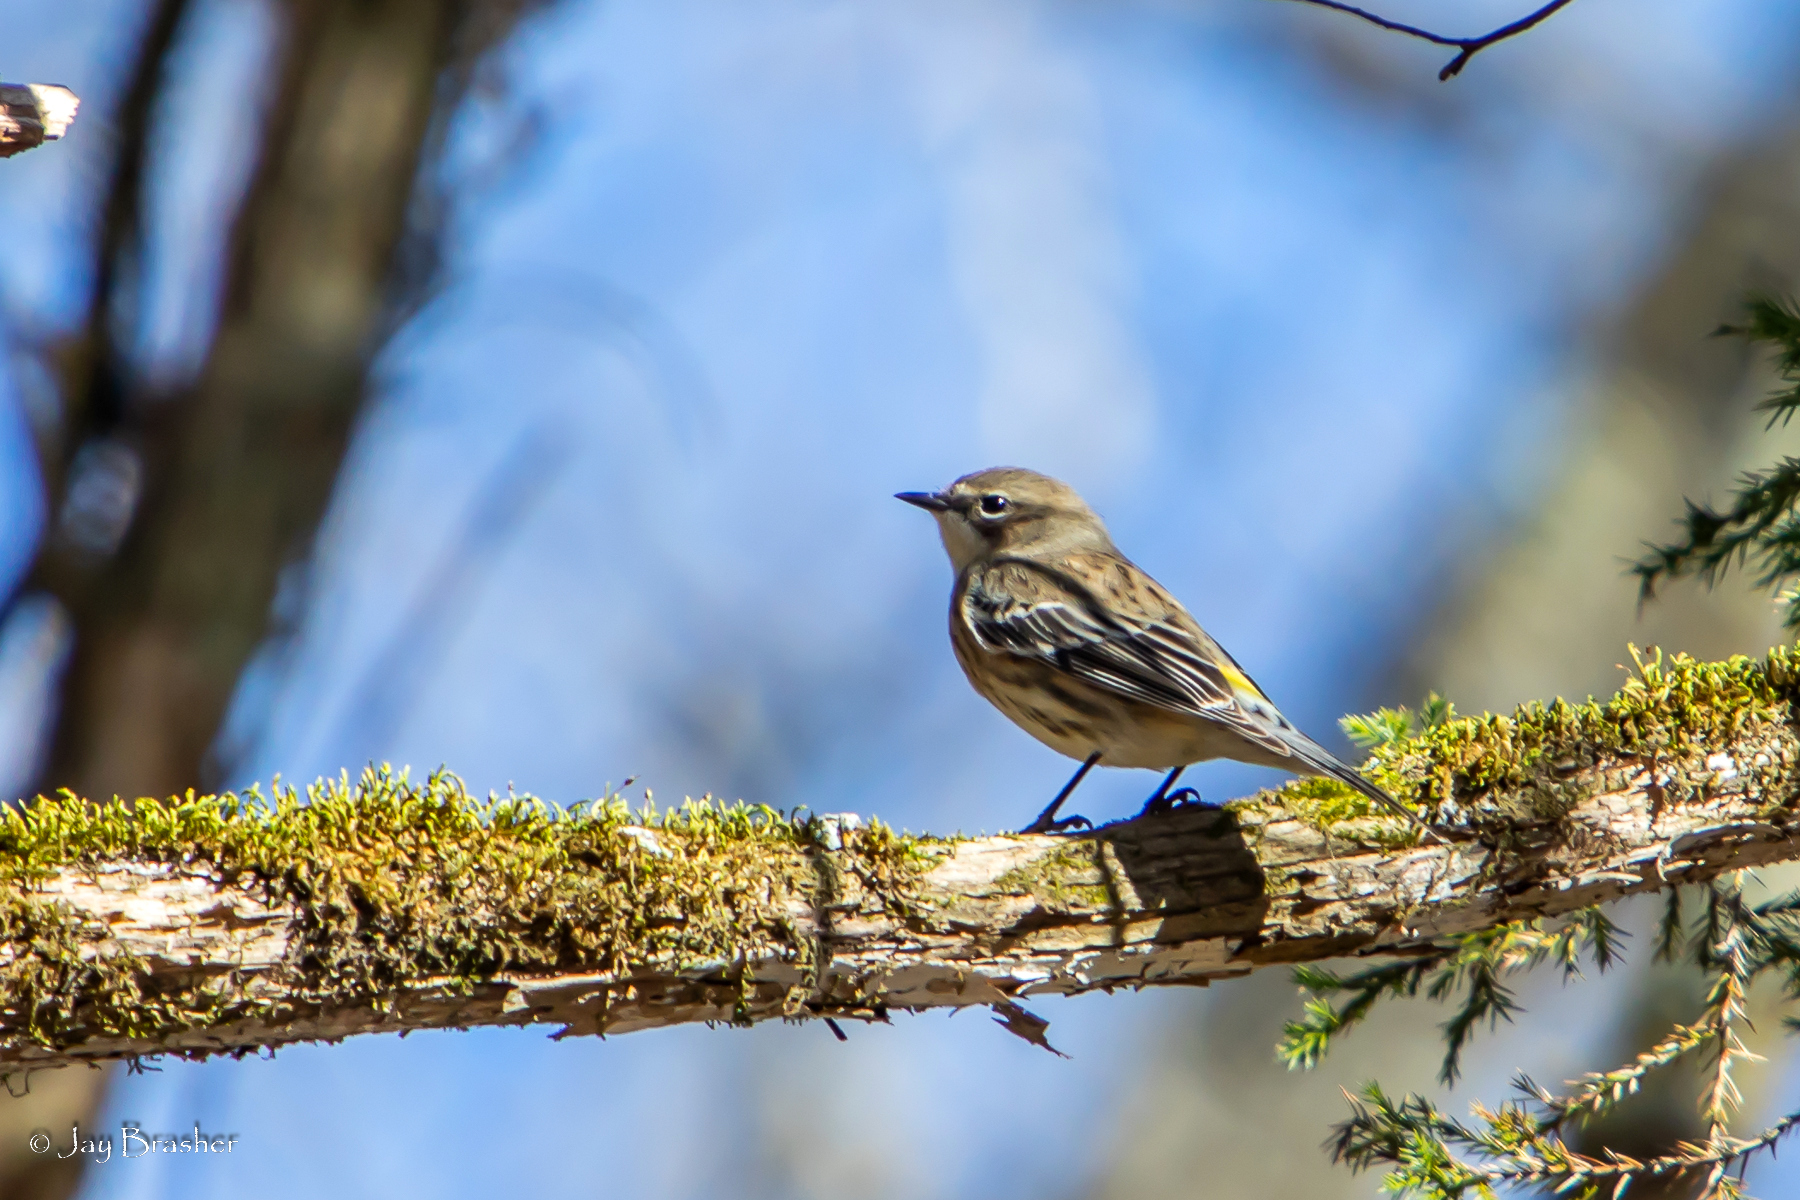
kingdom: Animalia
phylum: Chordata
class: Aves
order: Passeriformes
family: Parulidae
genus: Setophaga
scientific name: Setophaga coronata
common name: Myrtle warbler
